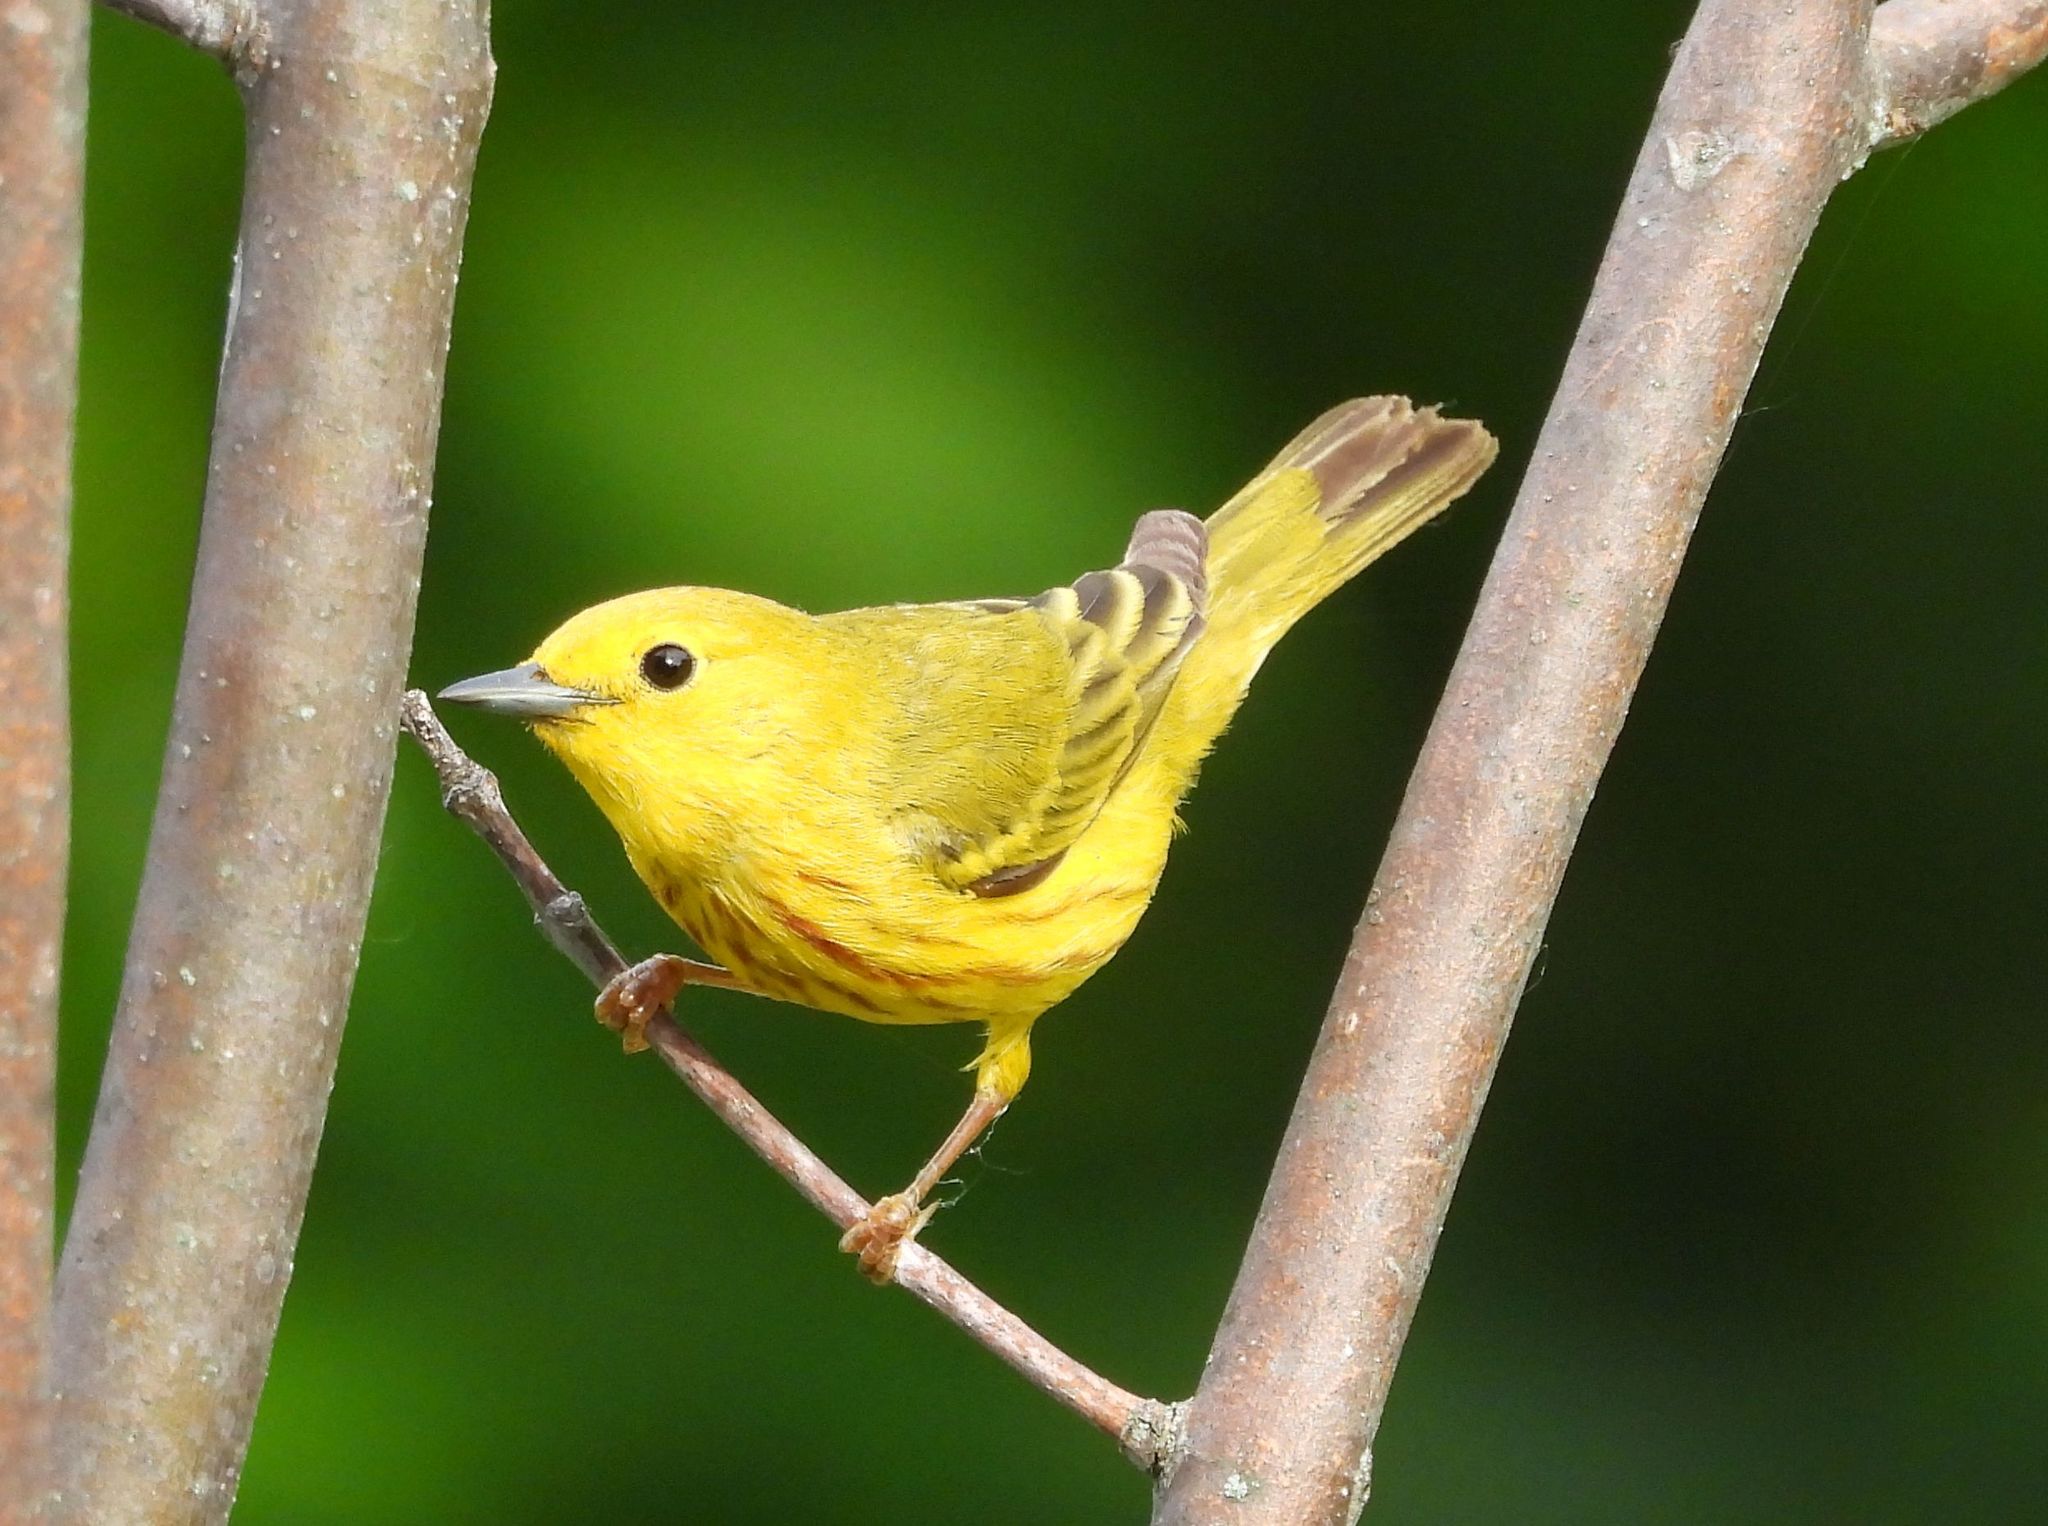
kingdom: Animalia
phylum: Chordata
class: Aves
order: Passeriformes
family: Parulidae
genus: Setophaga
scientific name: Setophaga petechia
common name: Yellow warbler
